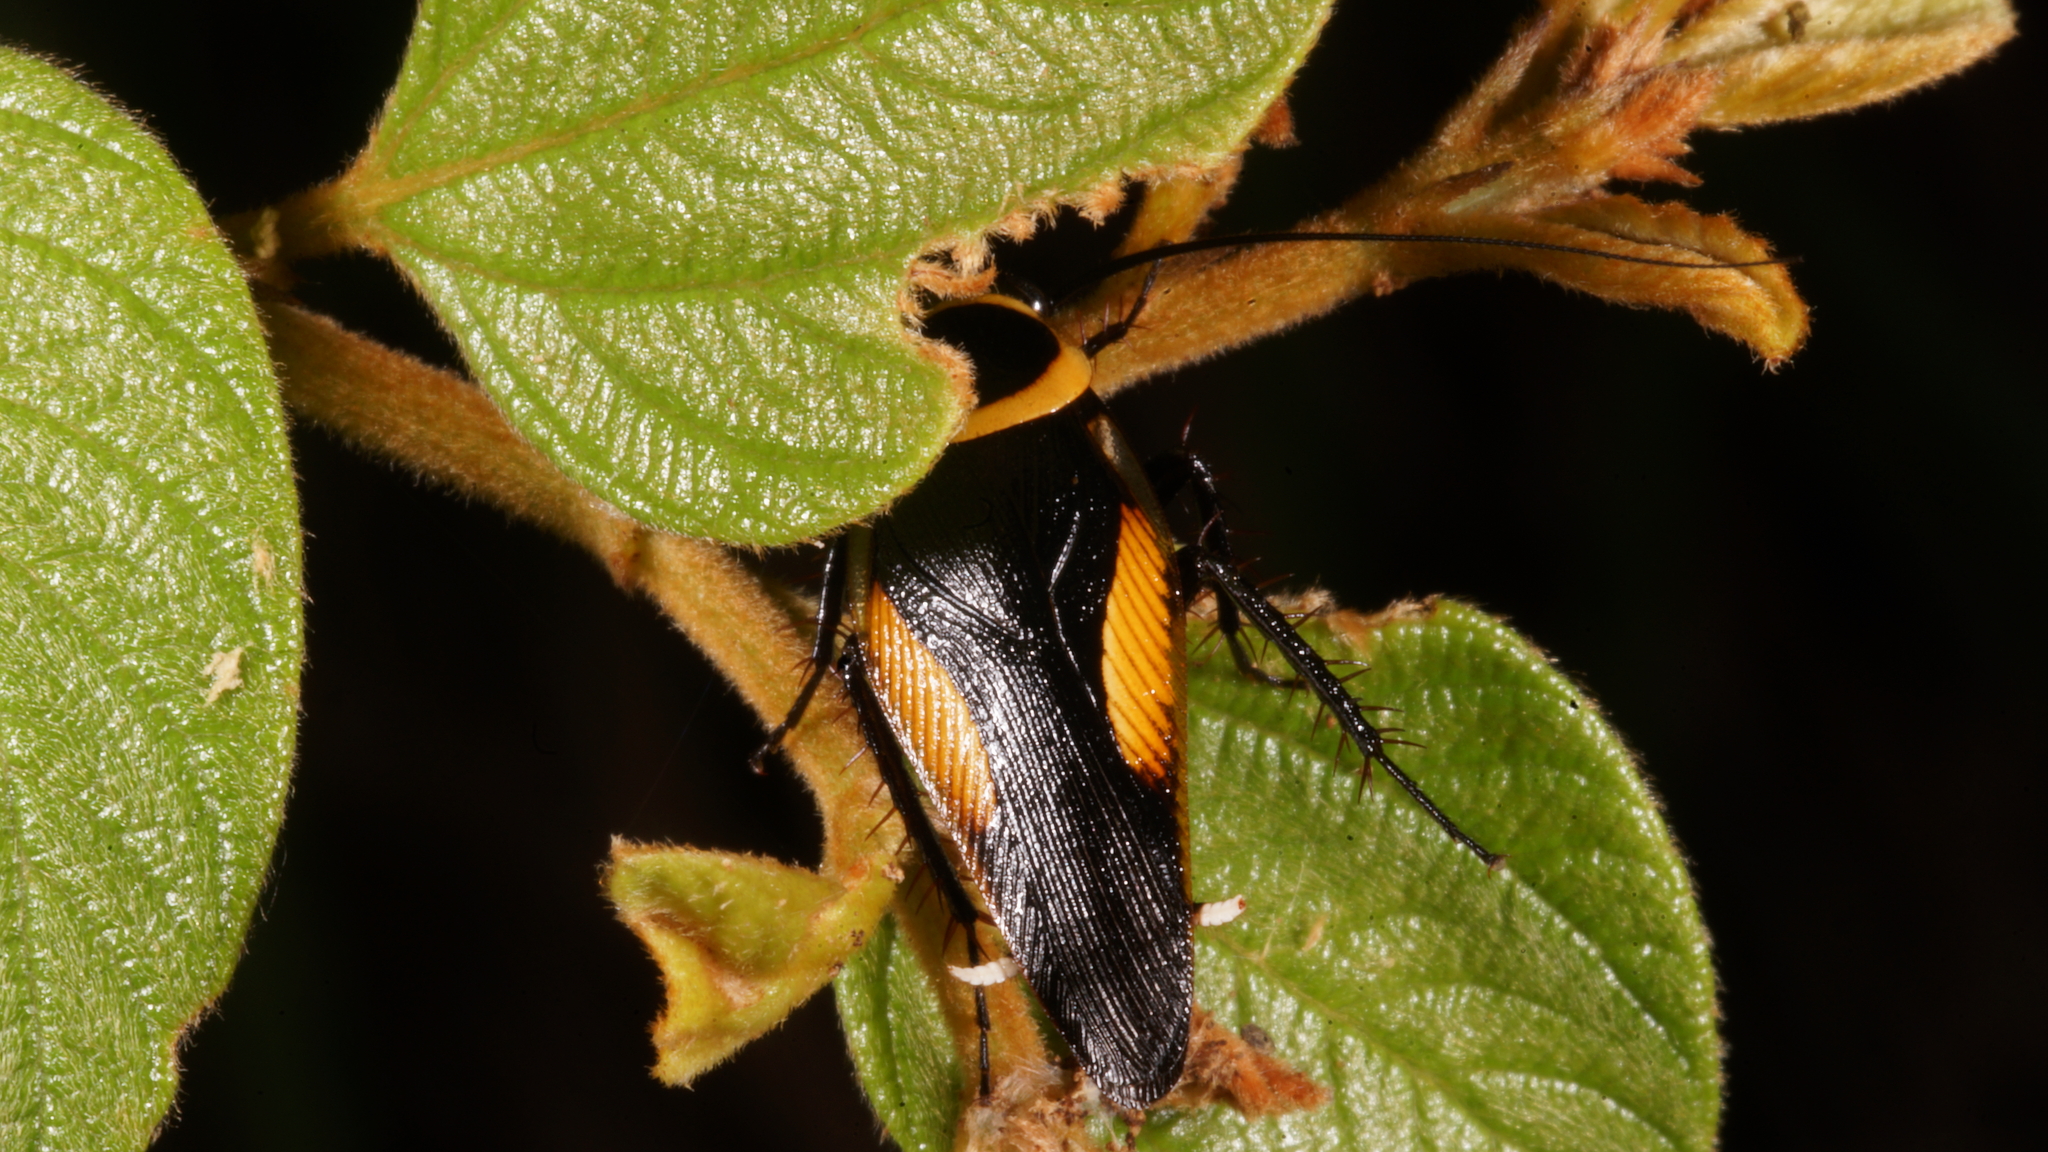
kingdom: Animalia
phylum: Arthropoda
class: Insecta
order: Blattodea
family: Ectobiidae
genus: Hemithyrsocera
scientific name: Hemithyrsocera vittata
